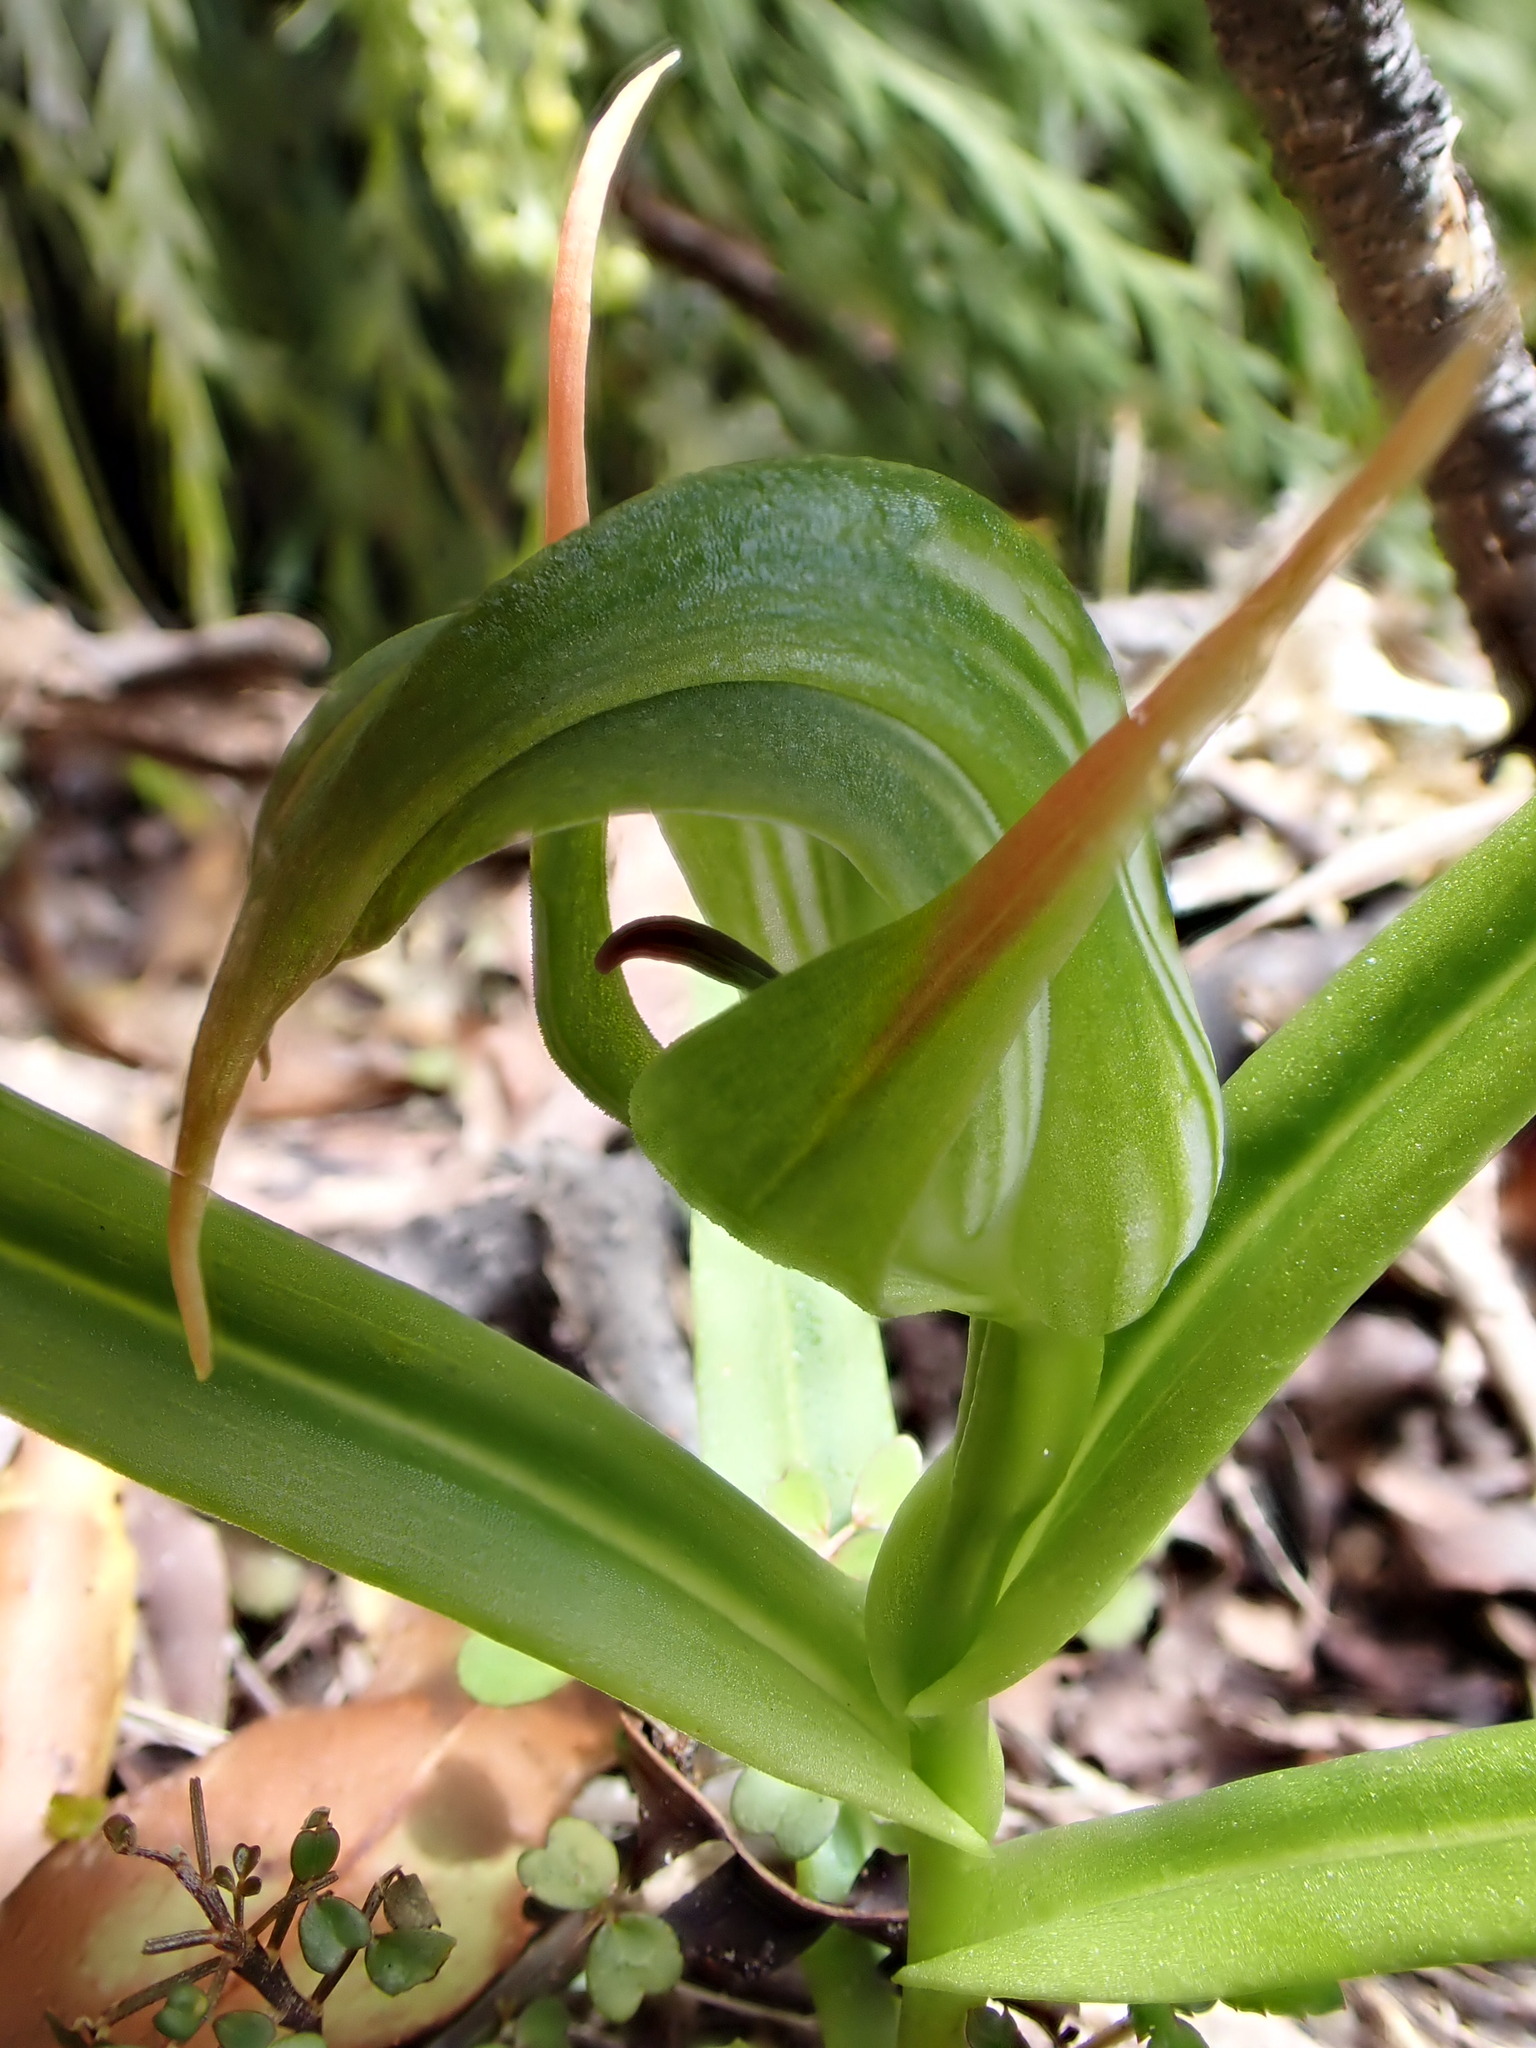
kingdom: Plantae
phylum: Tracheophyta
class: Liliopsida
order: Asparagales
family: Orchidaceae
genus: Pterostylis
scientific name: Pterostylis montana
